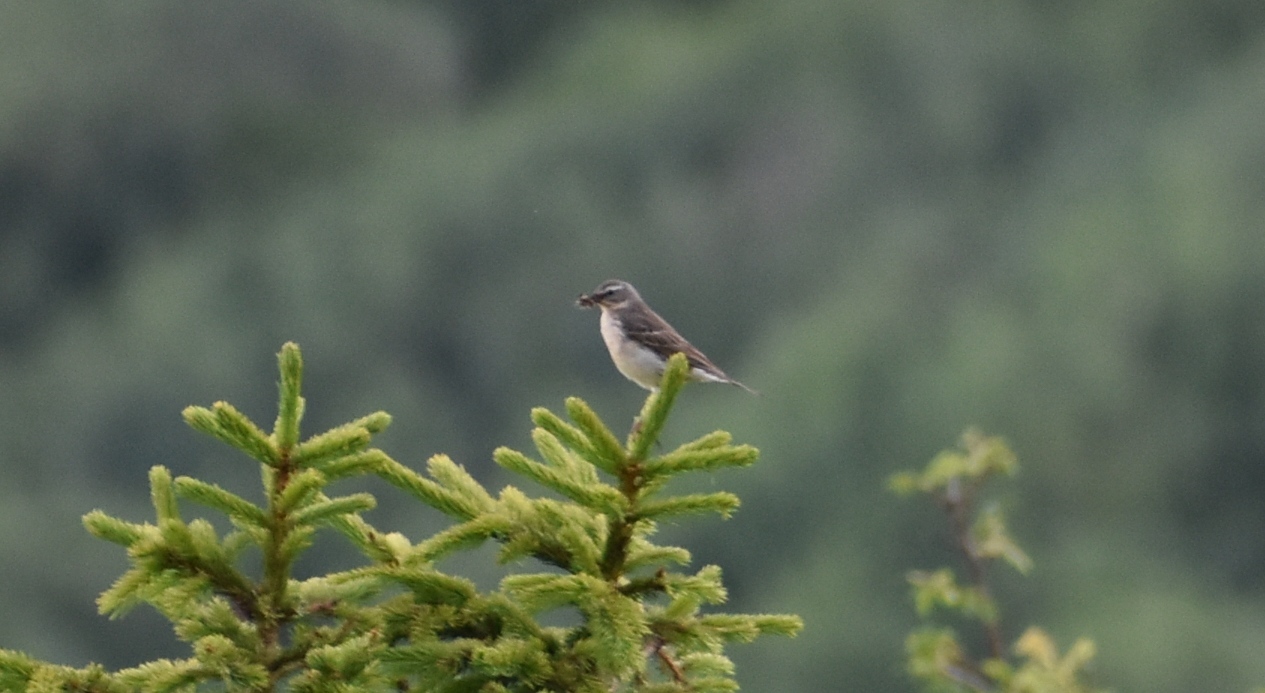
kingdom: Animalia
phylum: Chordata
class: Aves
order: Passeriformes
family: Motacillidae
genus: Anthus
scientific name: Anthus spinoletta
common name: Water pipit
